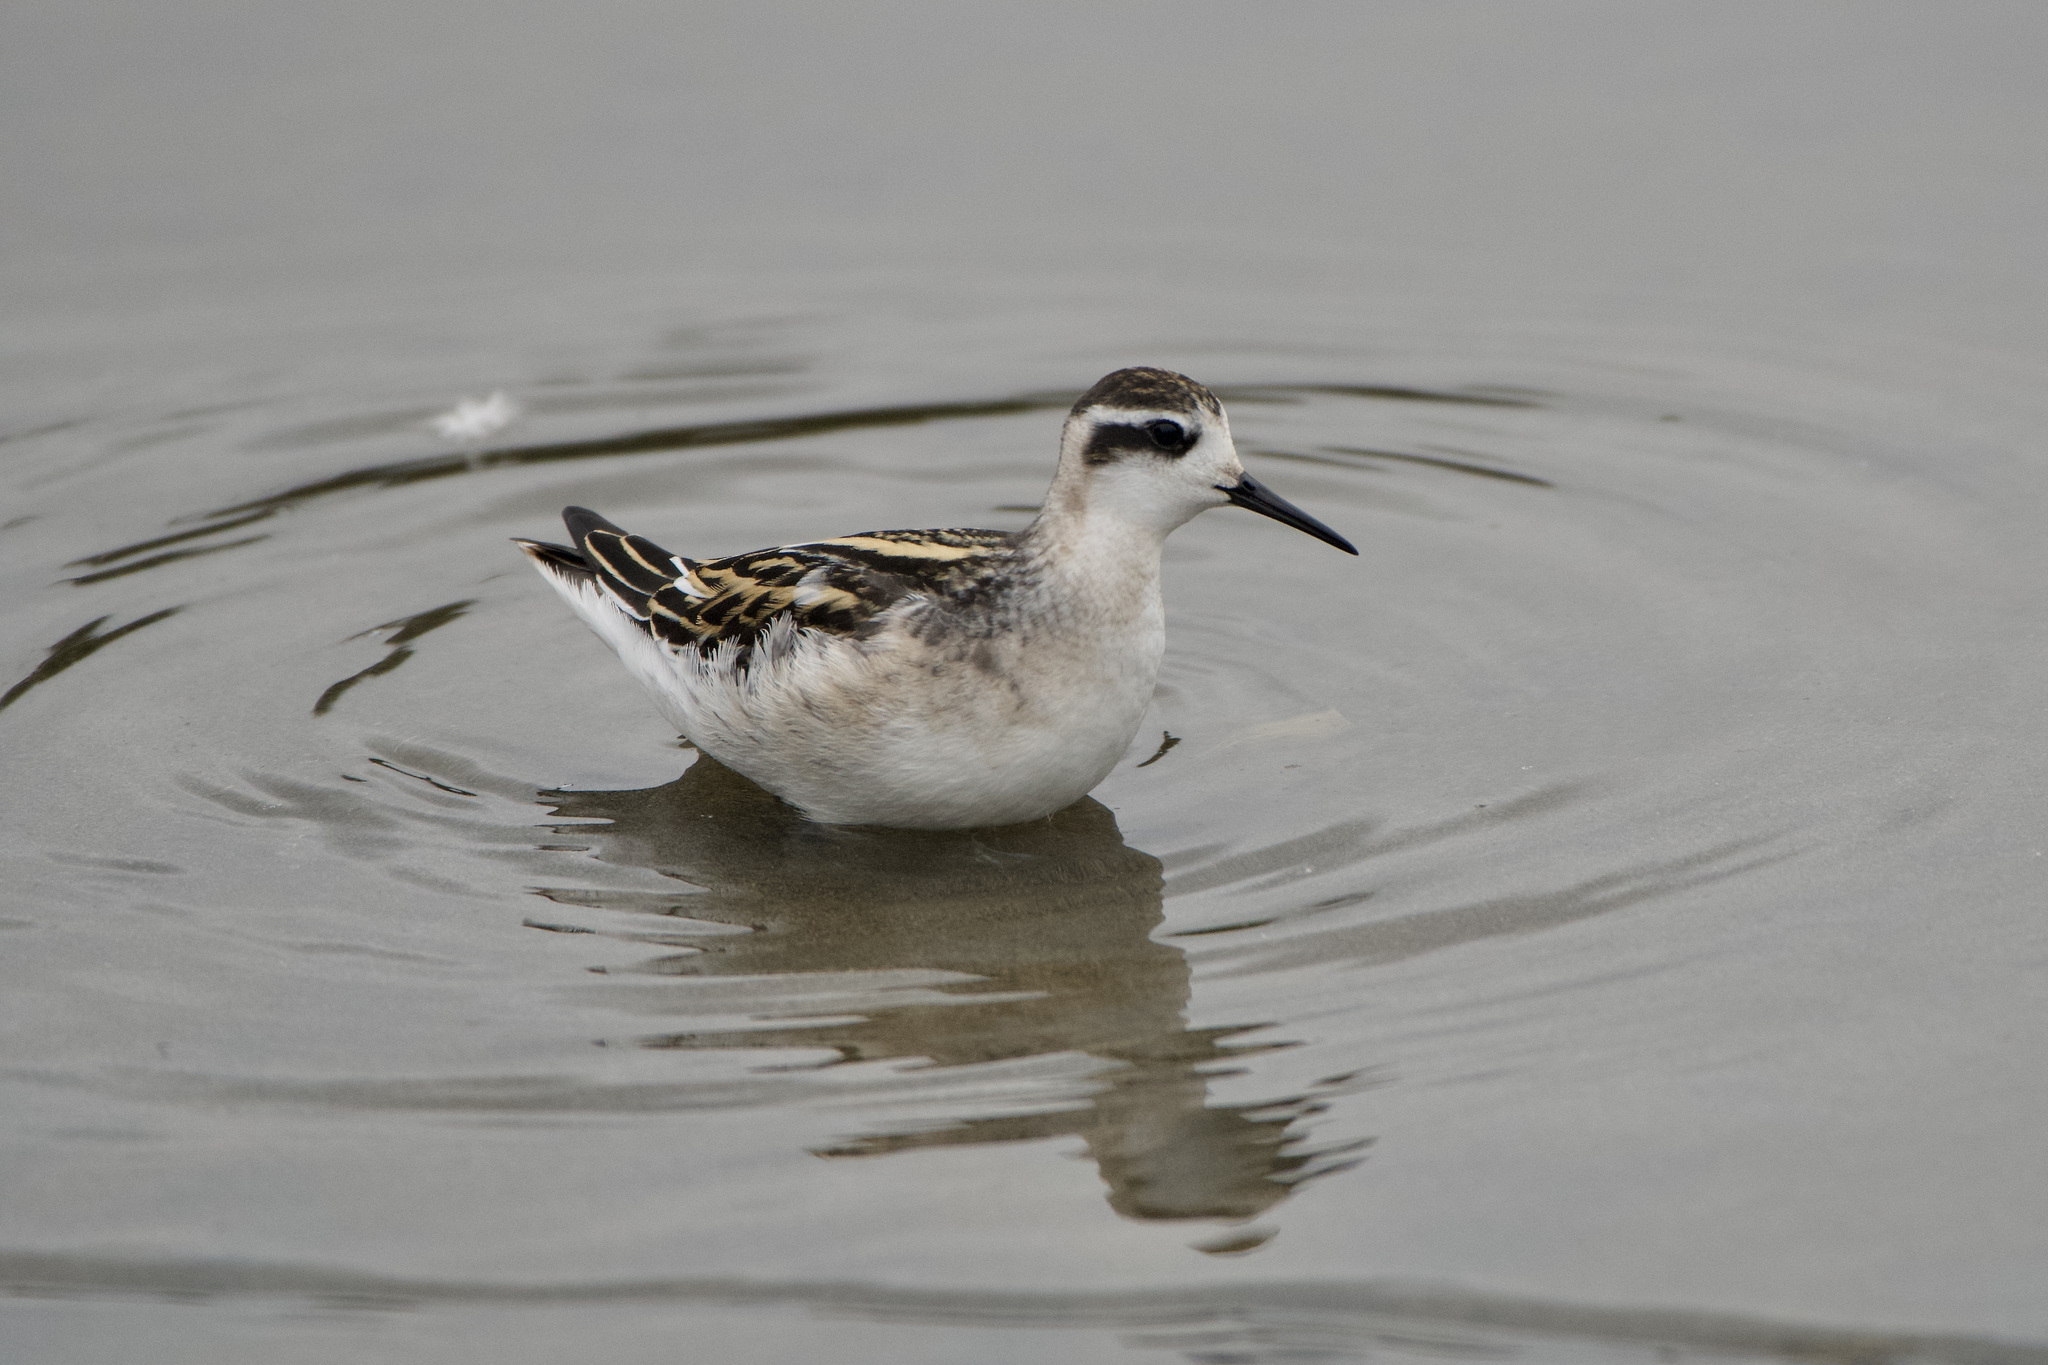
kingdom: Animalia
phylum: Chordata
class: Aves
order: Charadriiformes
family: Scolopacidae
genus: Phalaropus
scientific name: Phalaropus lobatus
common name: Red-necked phalarope
